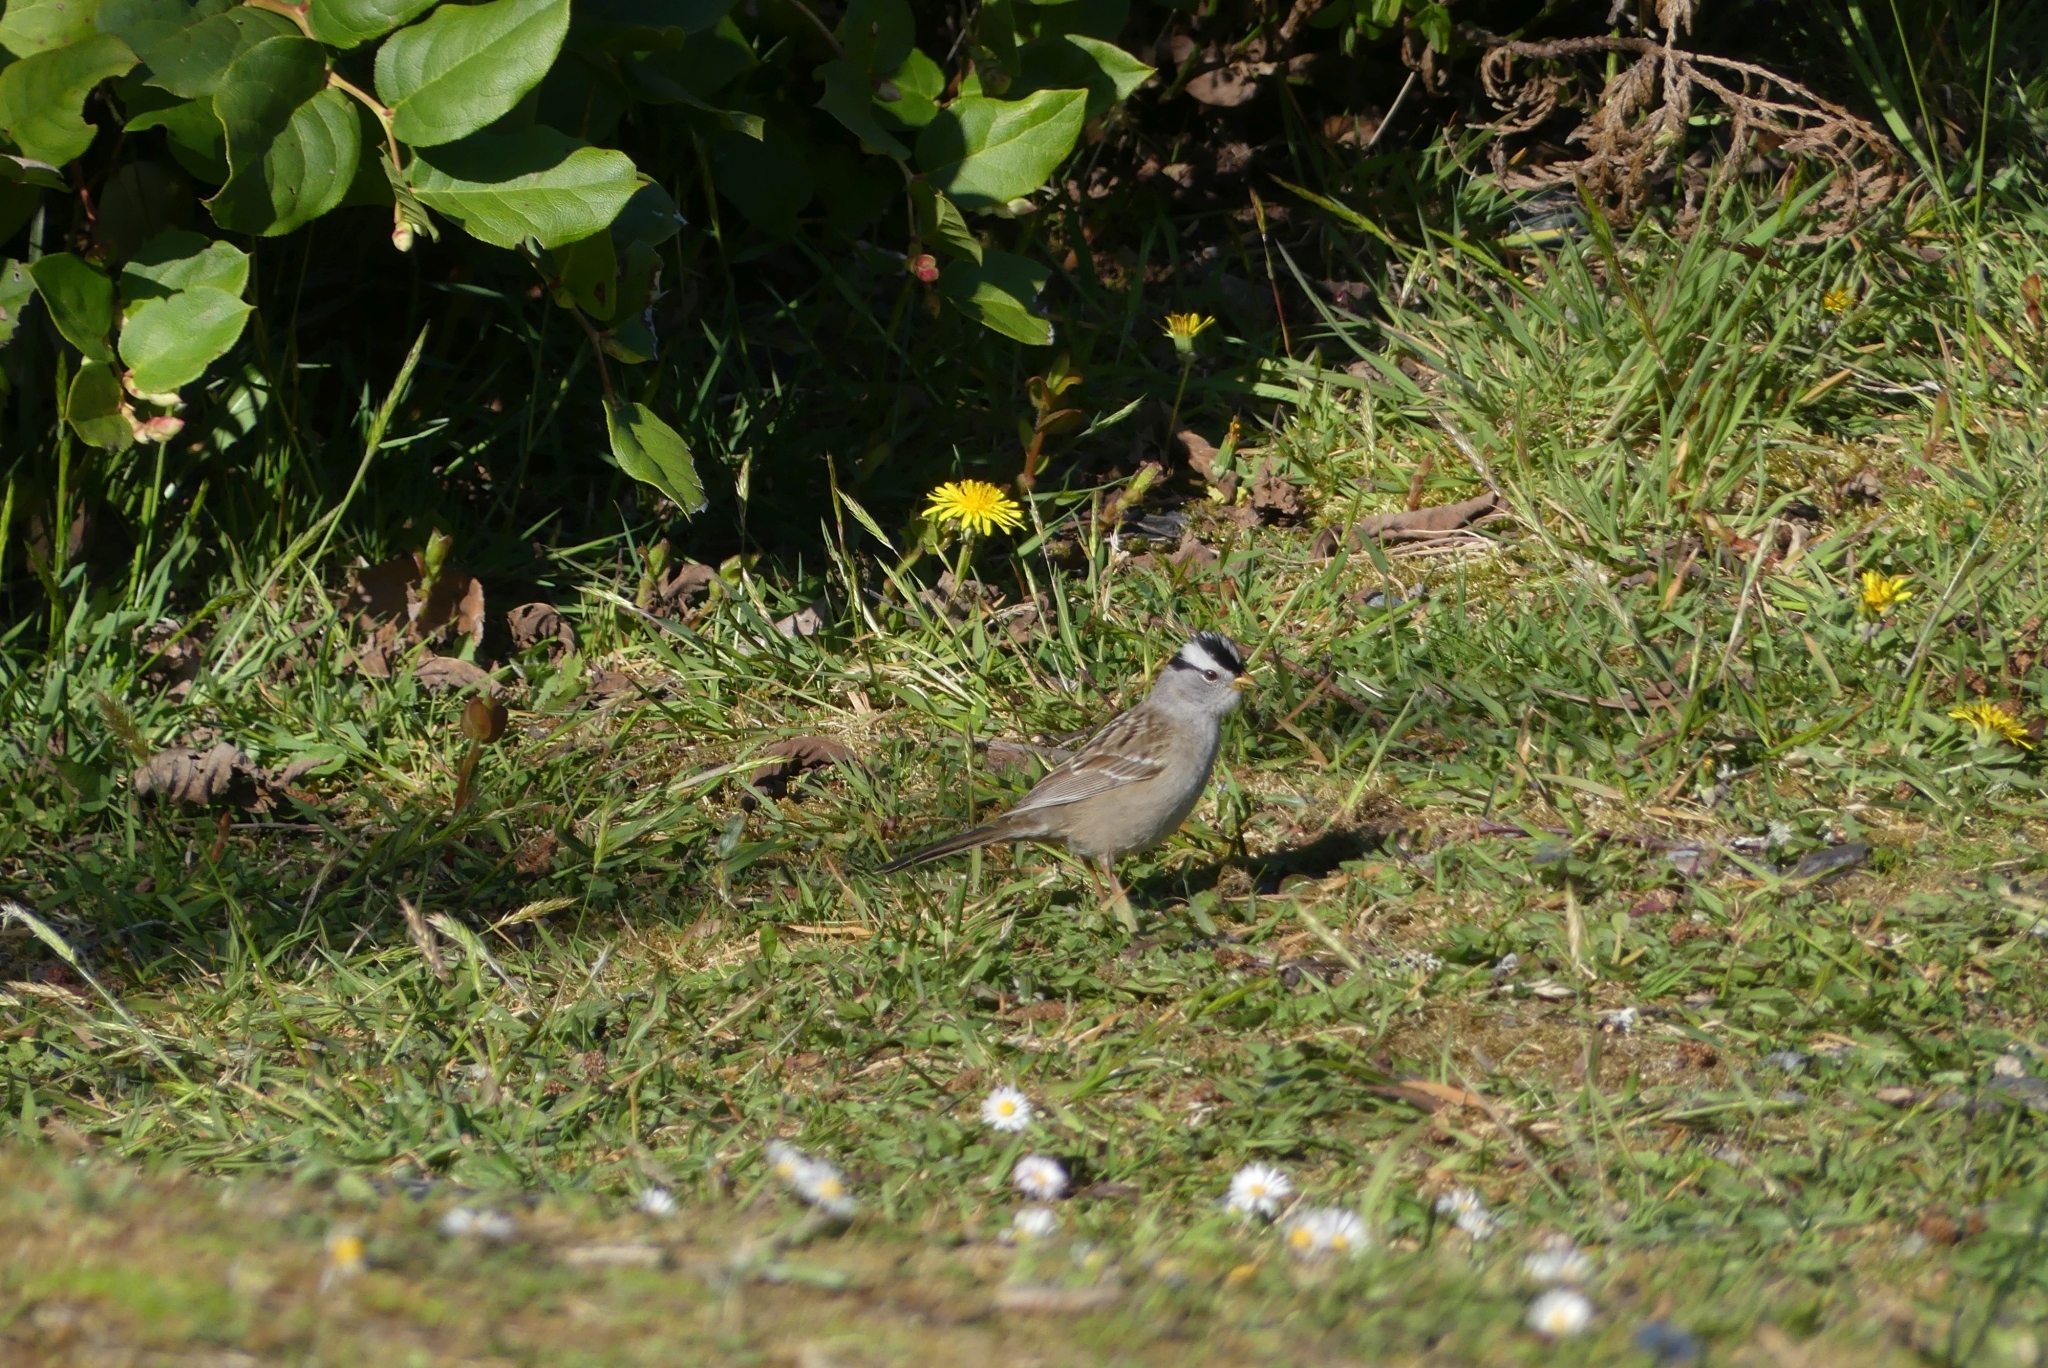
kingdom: Animalia
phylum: Chordata
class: Aves
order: Passeriformes
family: Passerellidae
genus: Zonotrichia
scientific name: Zonotrichia leucophrys
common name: White-crowned sparrow
